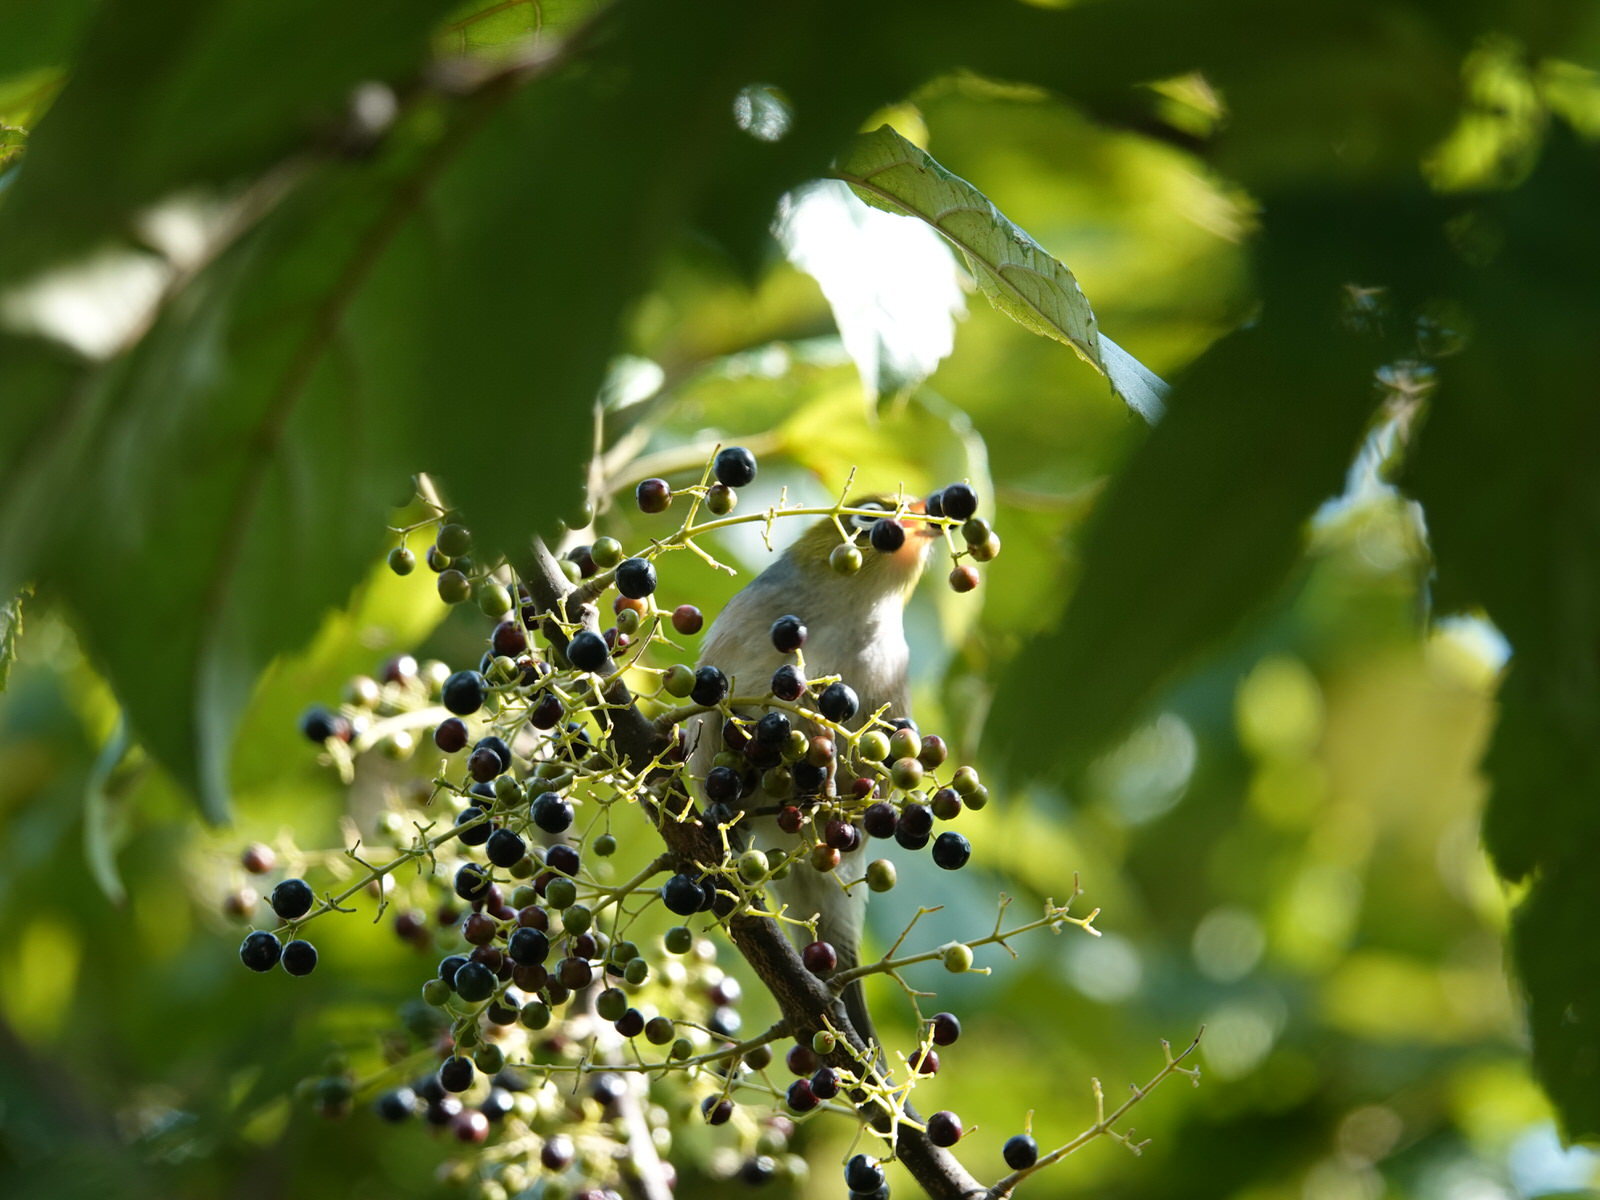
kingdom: Animalia
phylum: Chordata
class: Aves
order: Passeriformes
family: Zosteropidae
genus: Zosterops
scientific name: Zosterops lateralis
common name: Silvereye
